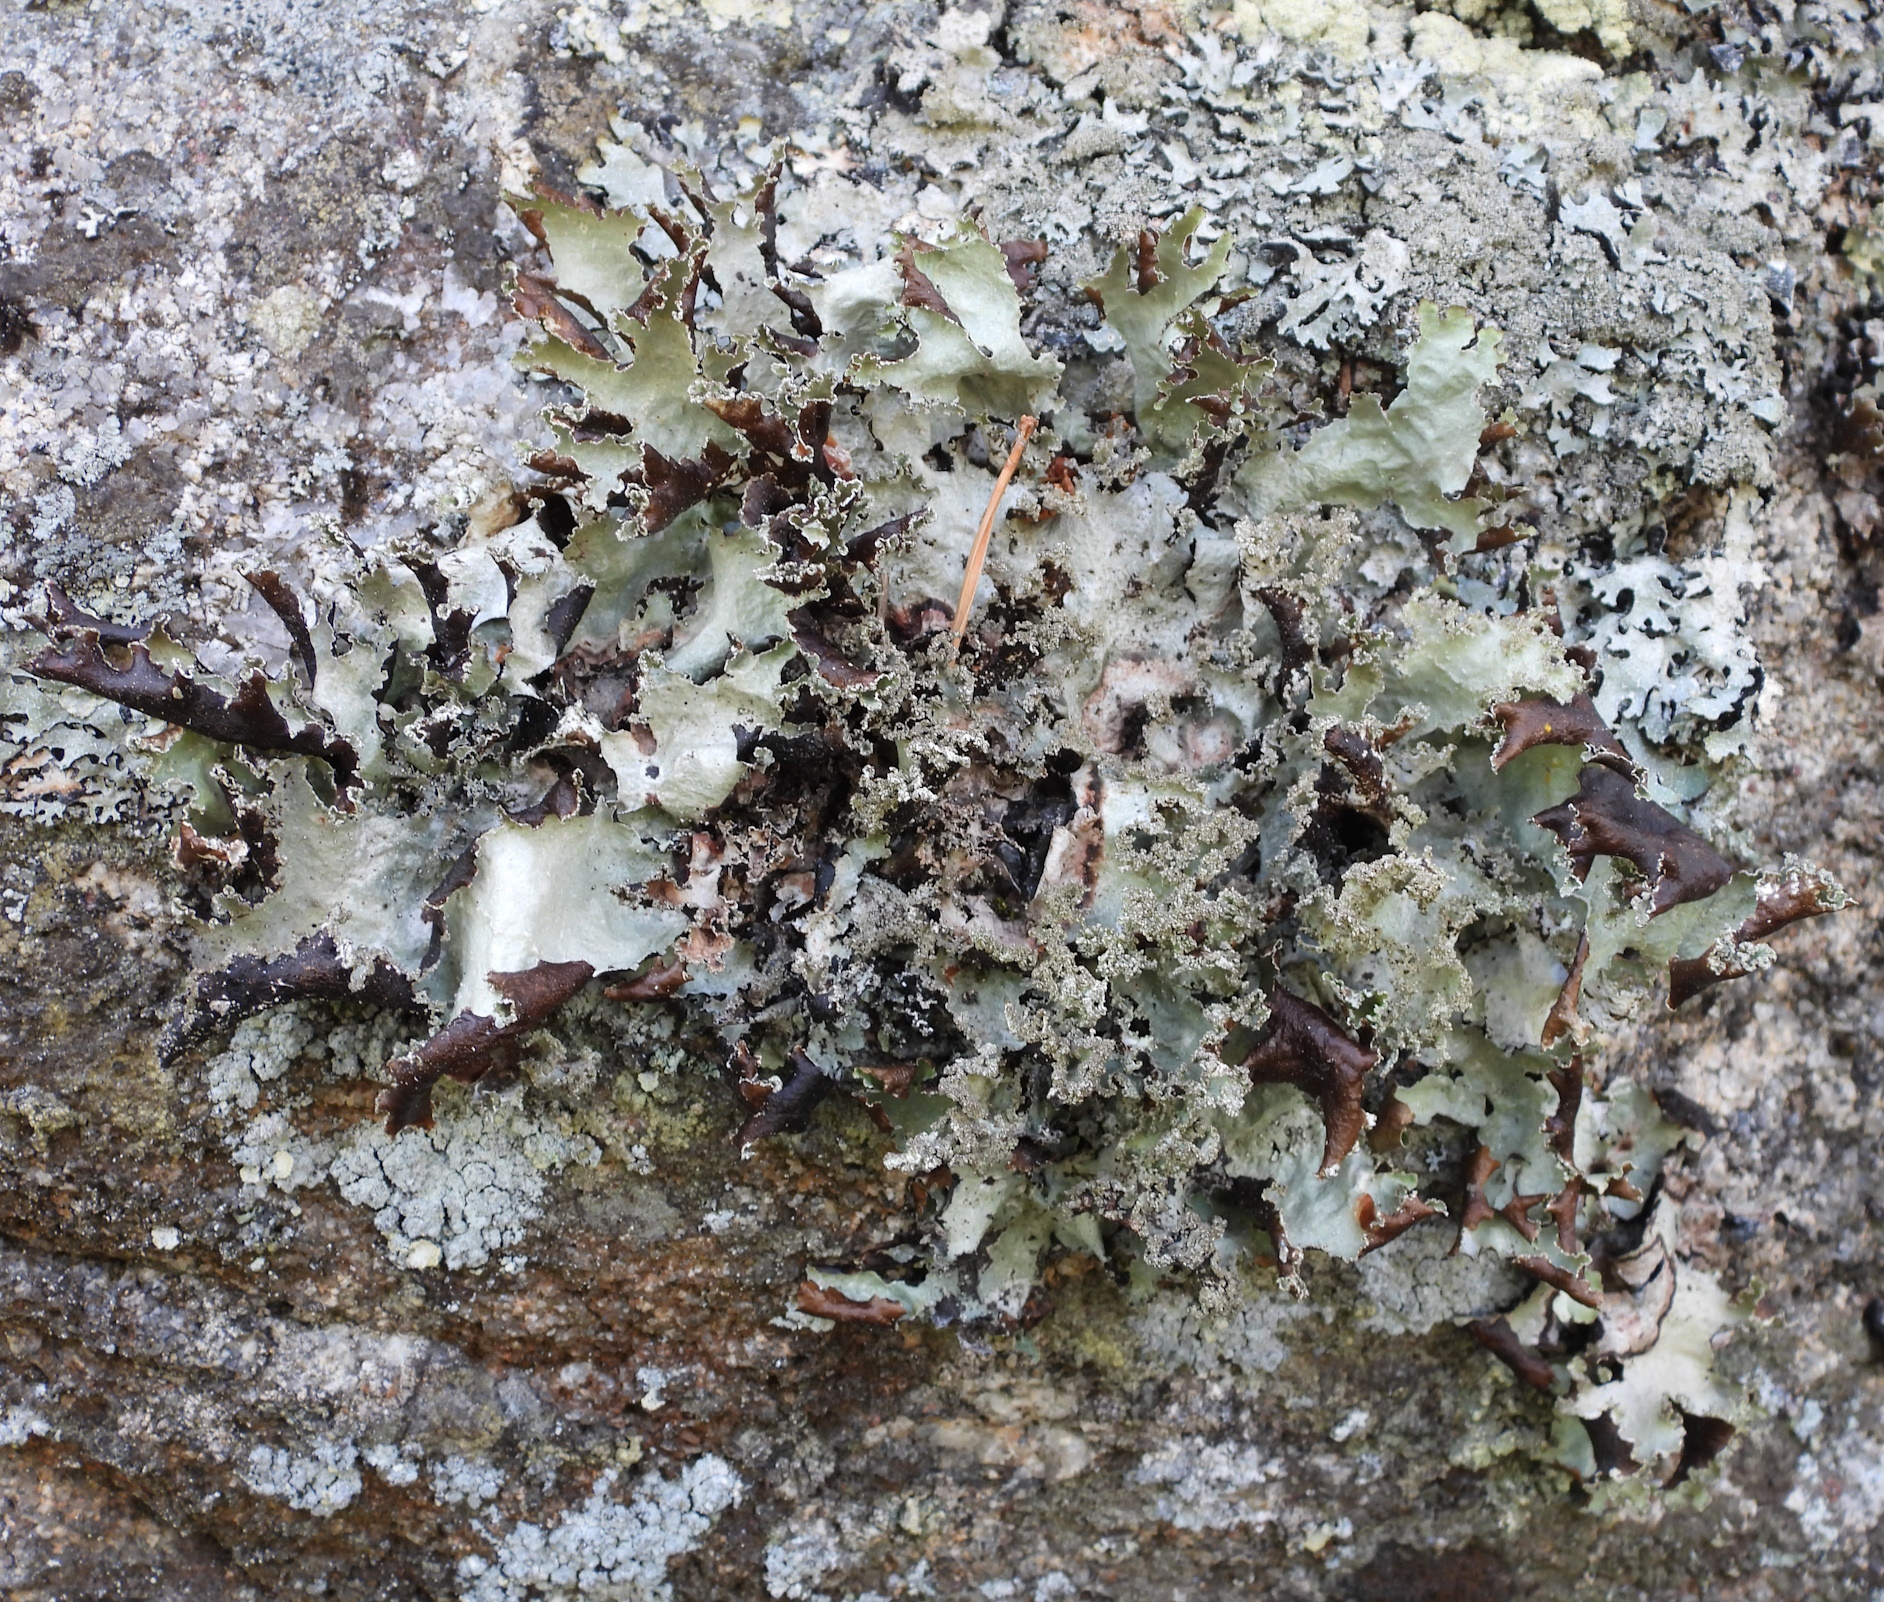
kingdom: Fungi
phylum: Ascomycota
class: Lecanoromycetes
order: Lecanorales
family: Parmeliaceae
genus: Platismatia
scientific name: Platismatia glauca
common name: Varied rag lichen
